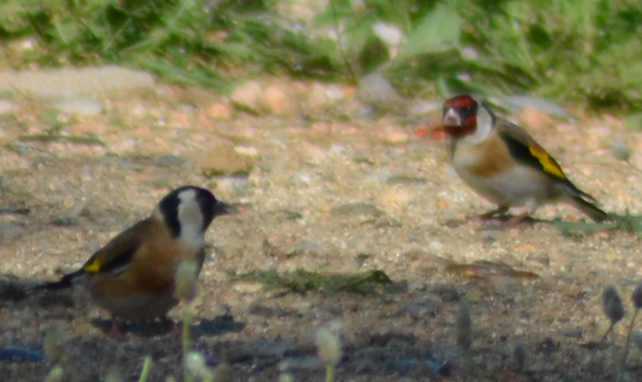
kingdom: Animalia
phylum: Chordata
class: Aves
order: Passeriformes
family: Fringillidae
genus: Carduelis
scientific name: Carduelis carduelis
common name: European goldfinch
